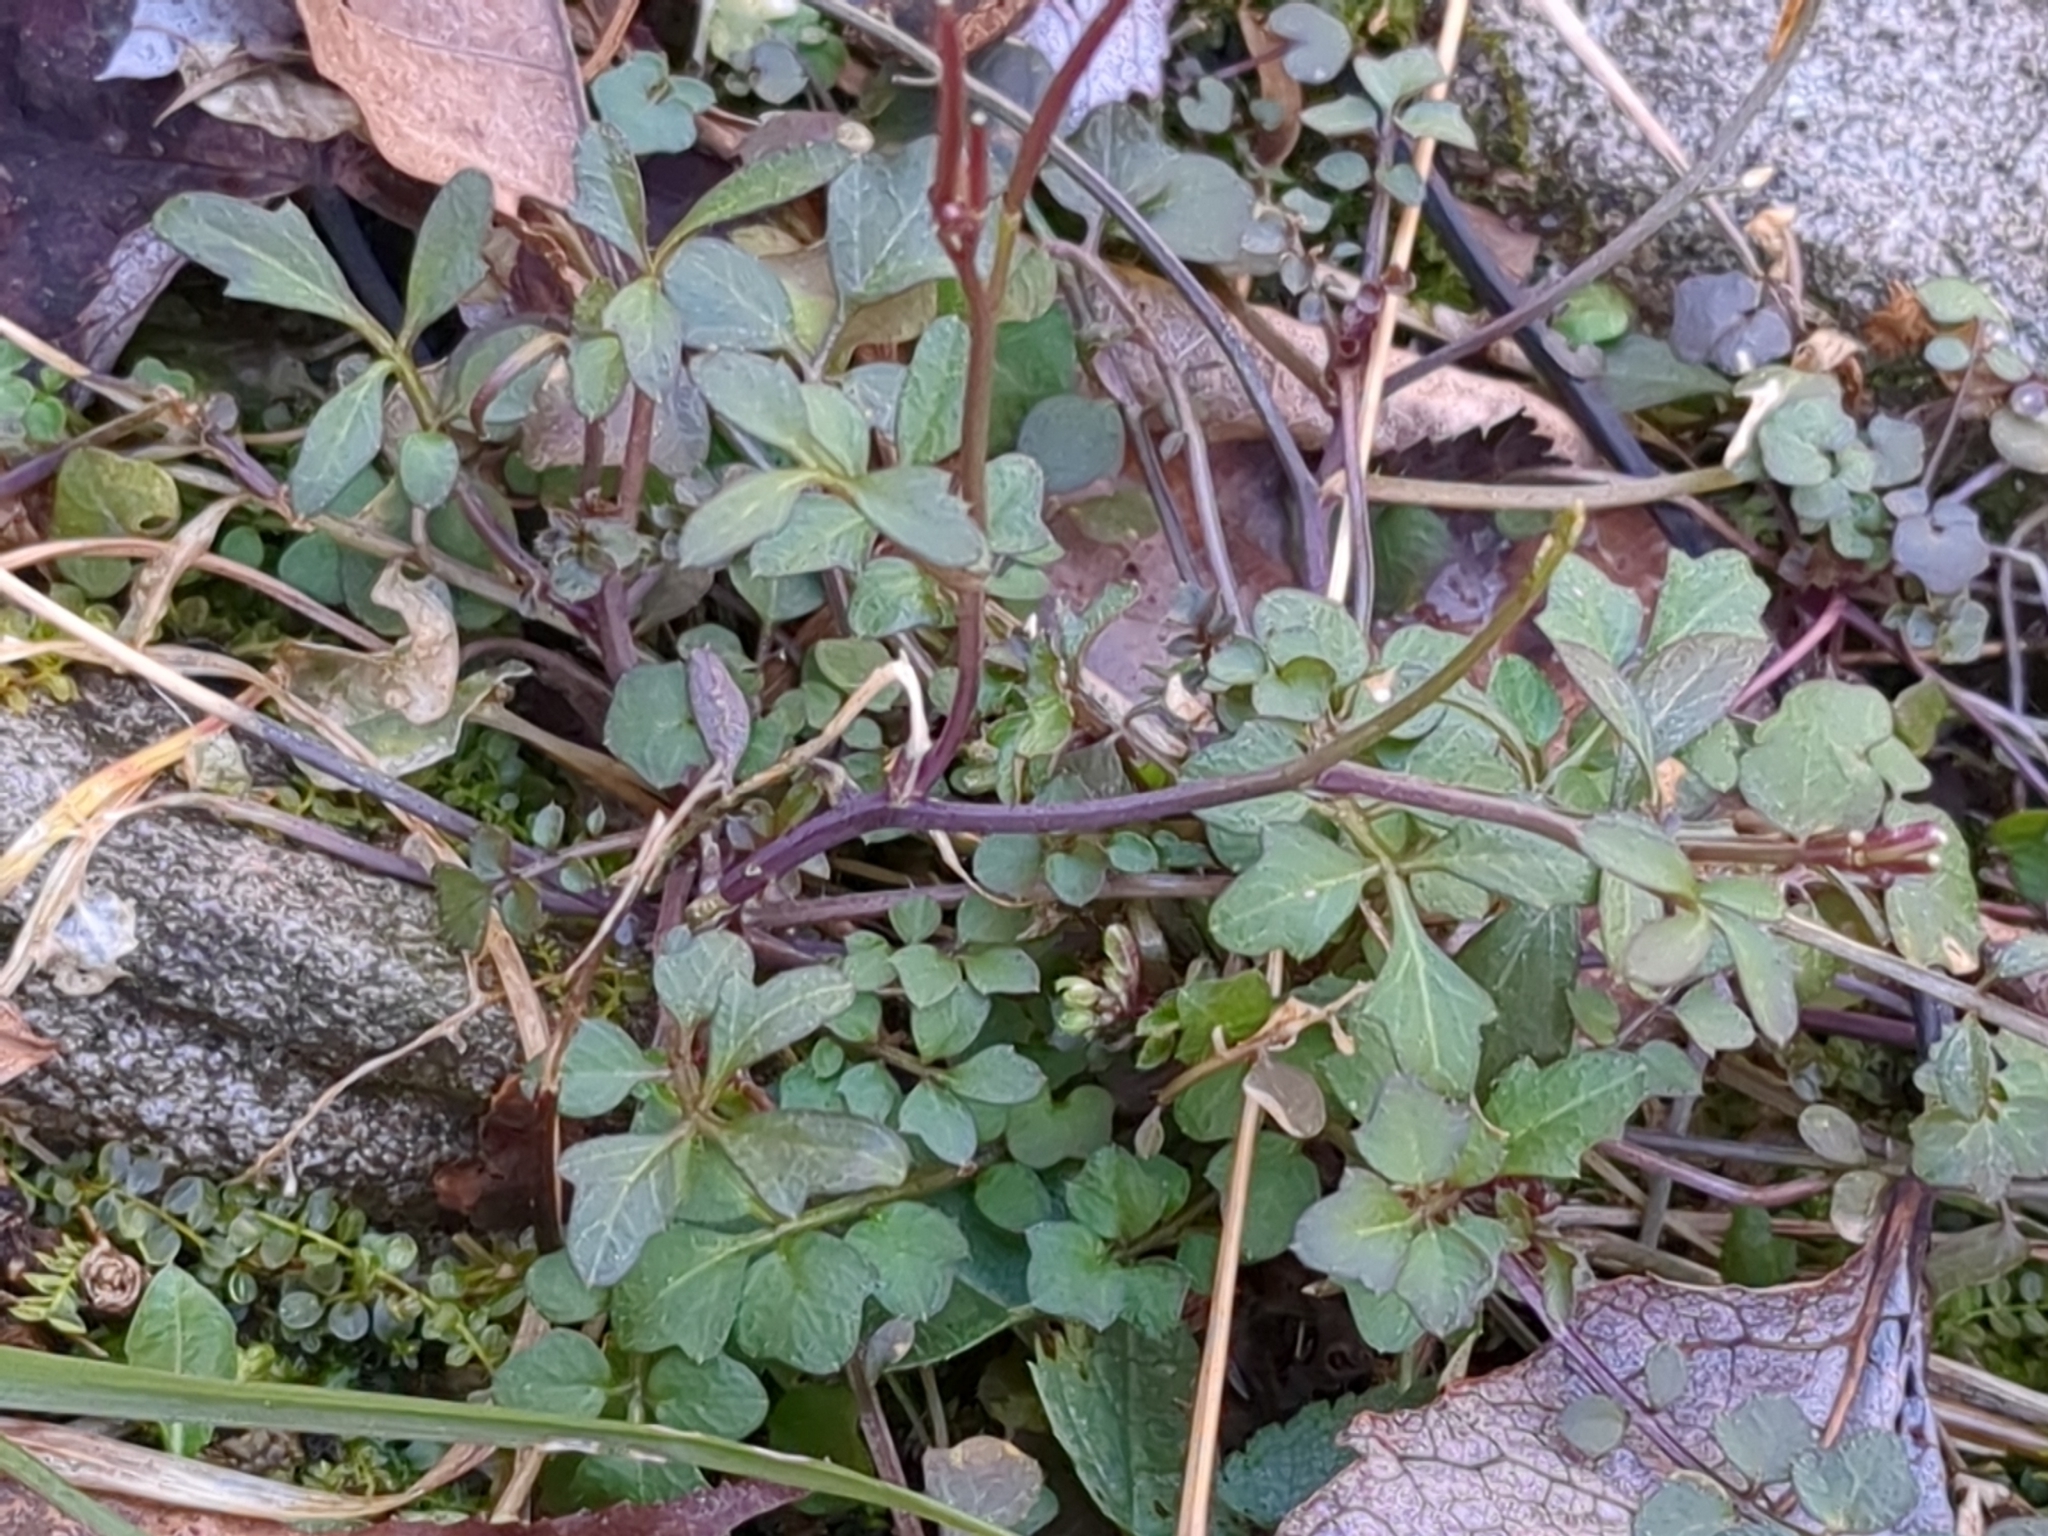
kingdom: Plantae
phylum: Tracheophyta
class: Magnoliopsida
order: Brassicales
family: Brassicaceae
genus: Cardamine
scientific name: Cardamine hirsuta
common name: Hairy bittercress
